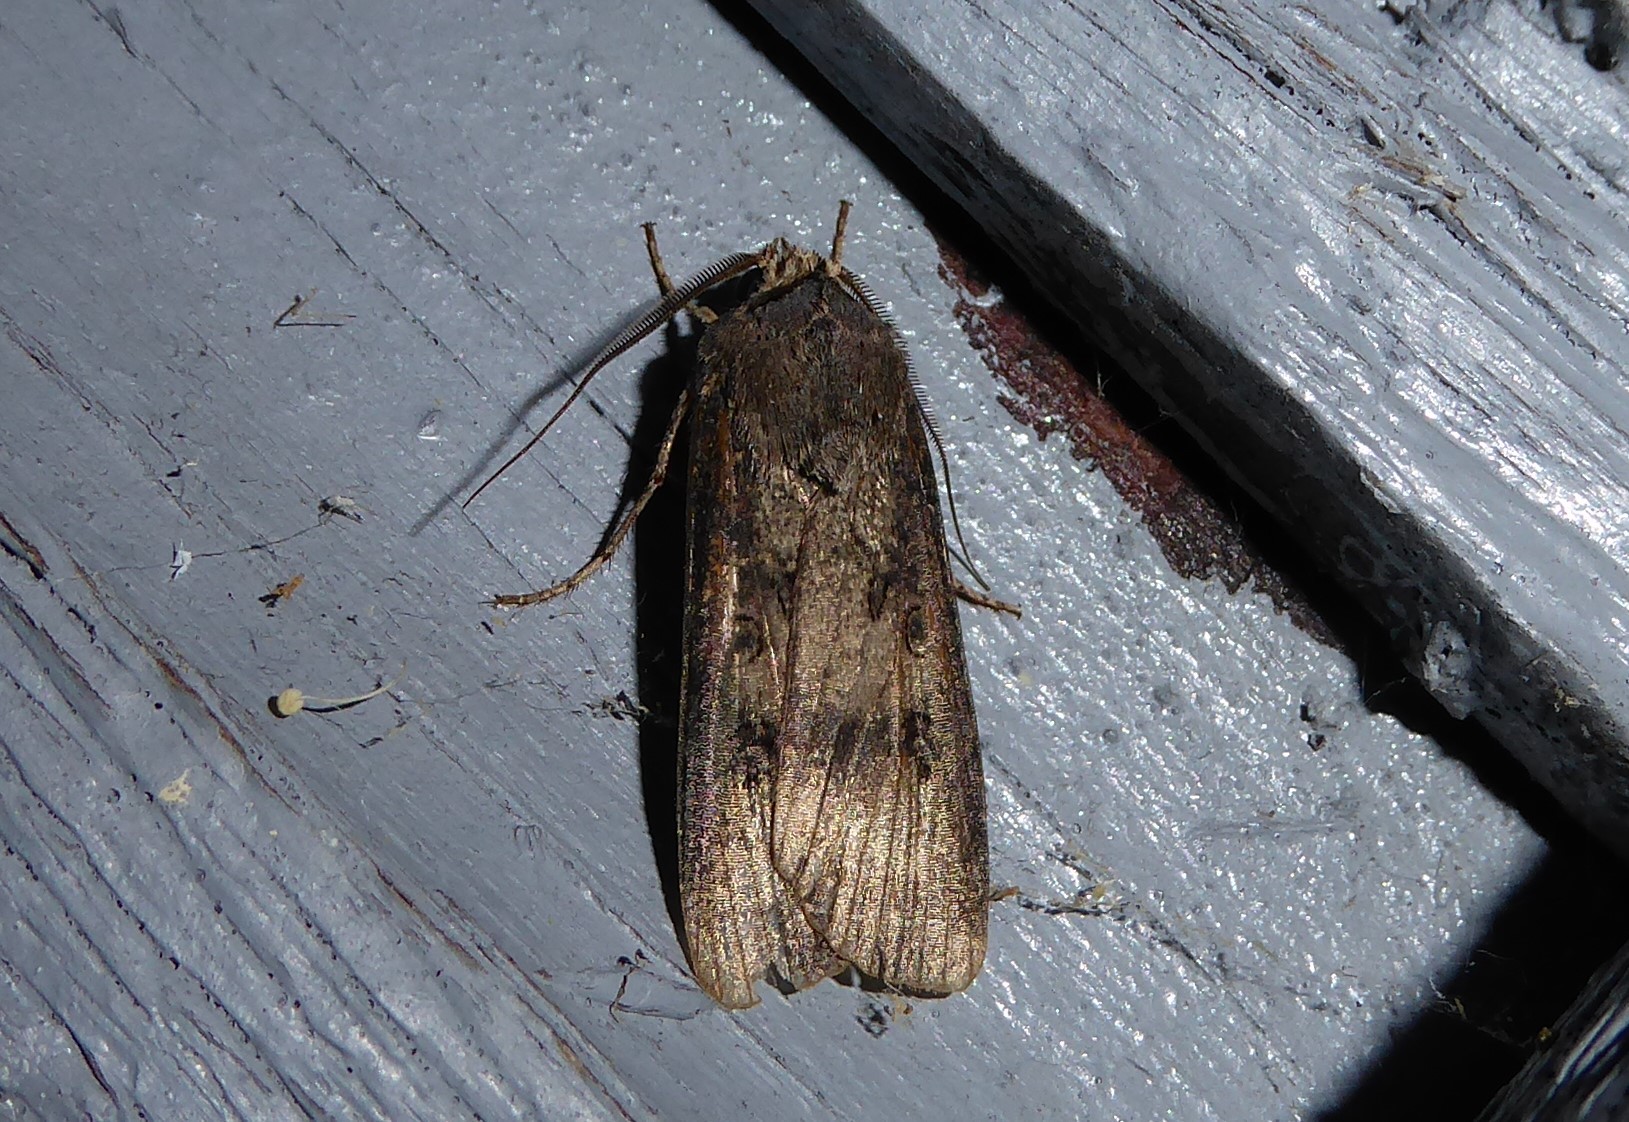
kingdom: Animalia
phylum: Arthropoda
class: Insecta
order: Lepidoptera
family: Noctuidae
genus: Agrotis
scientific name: Agrotis ipsilon
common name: Dark sword-grass
